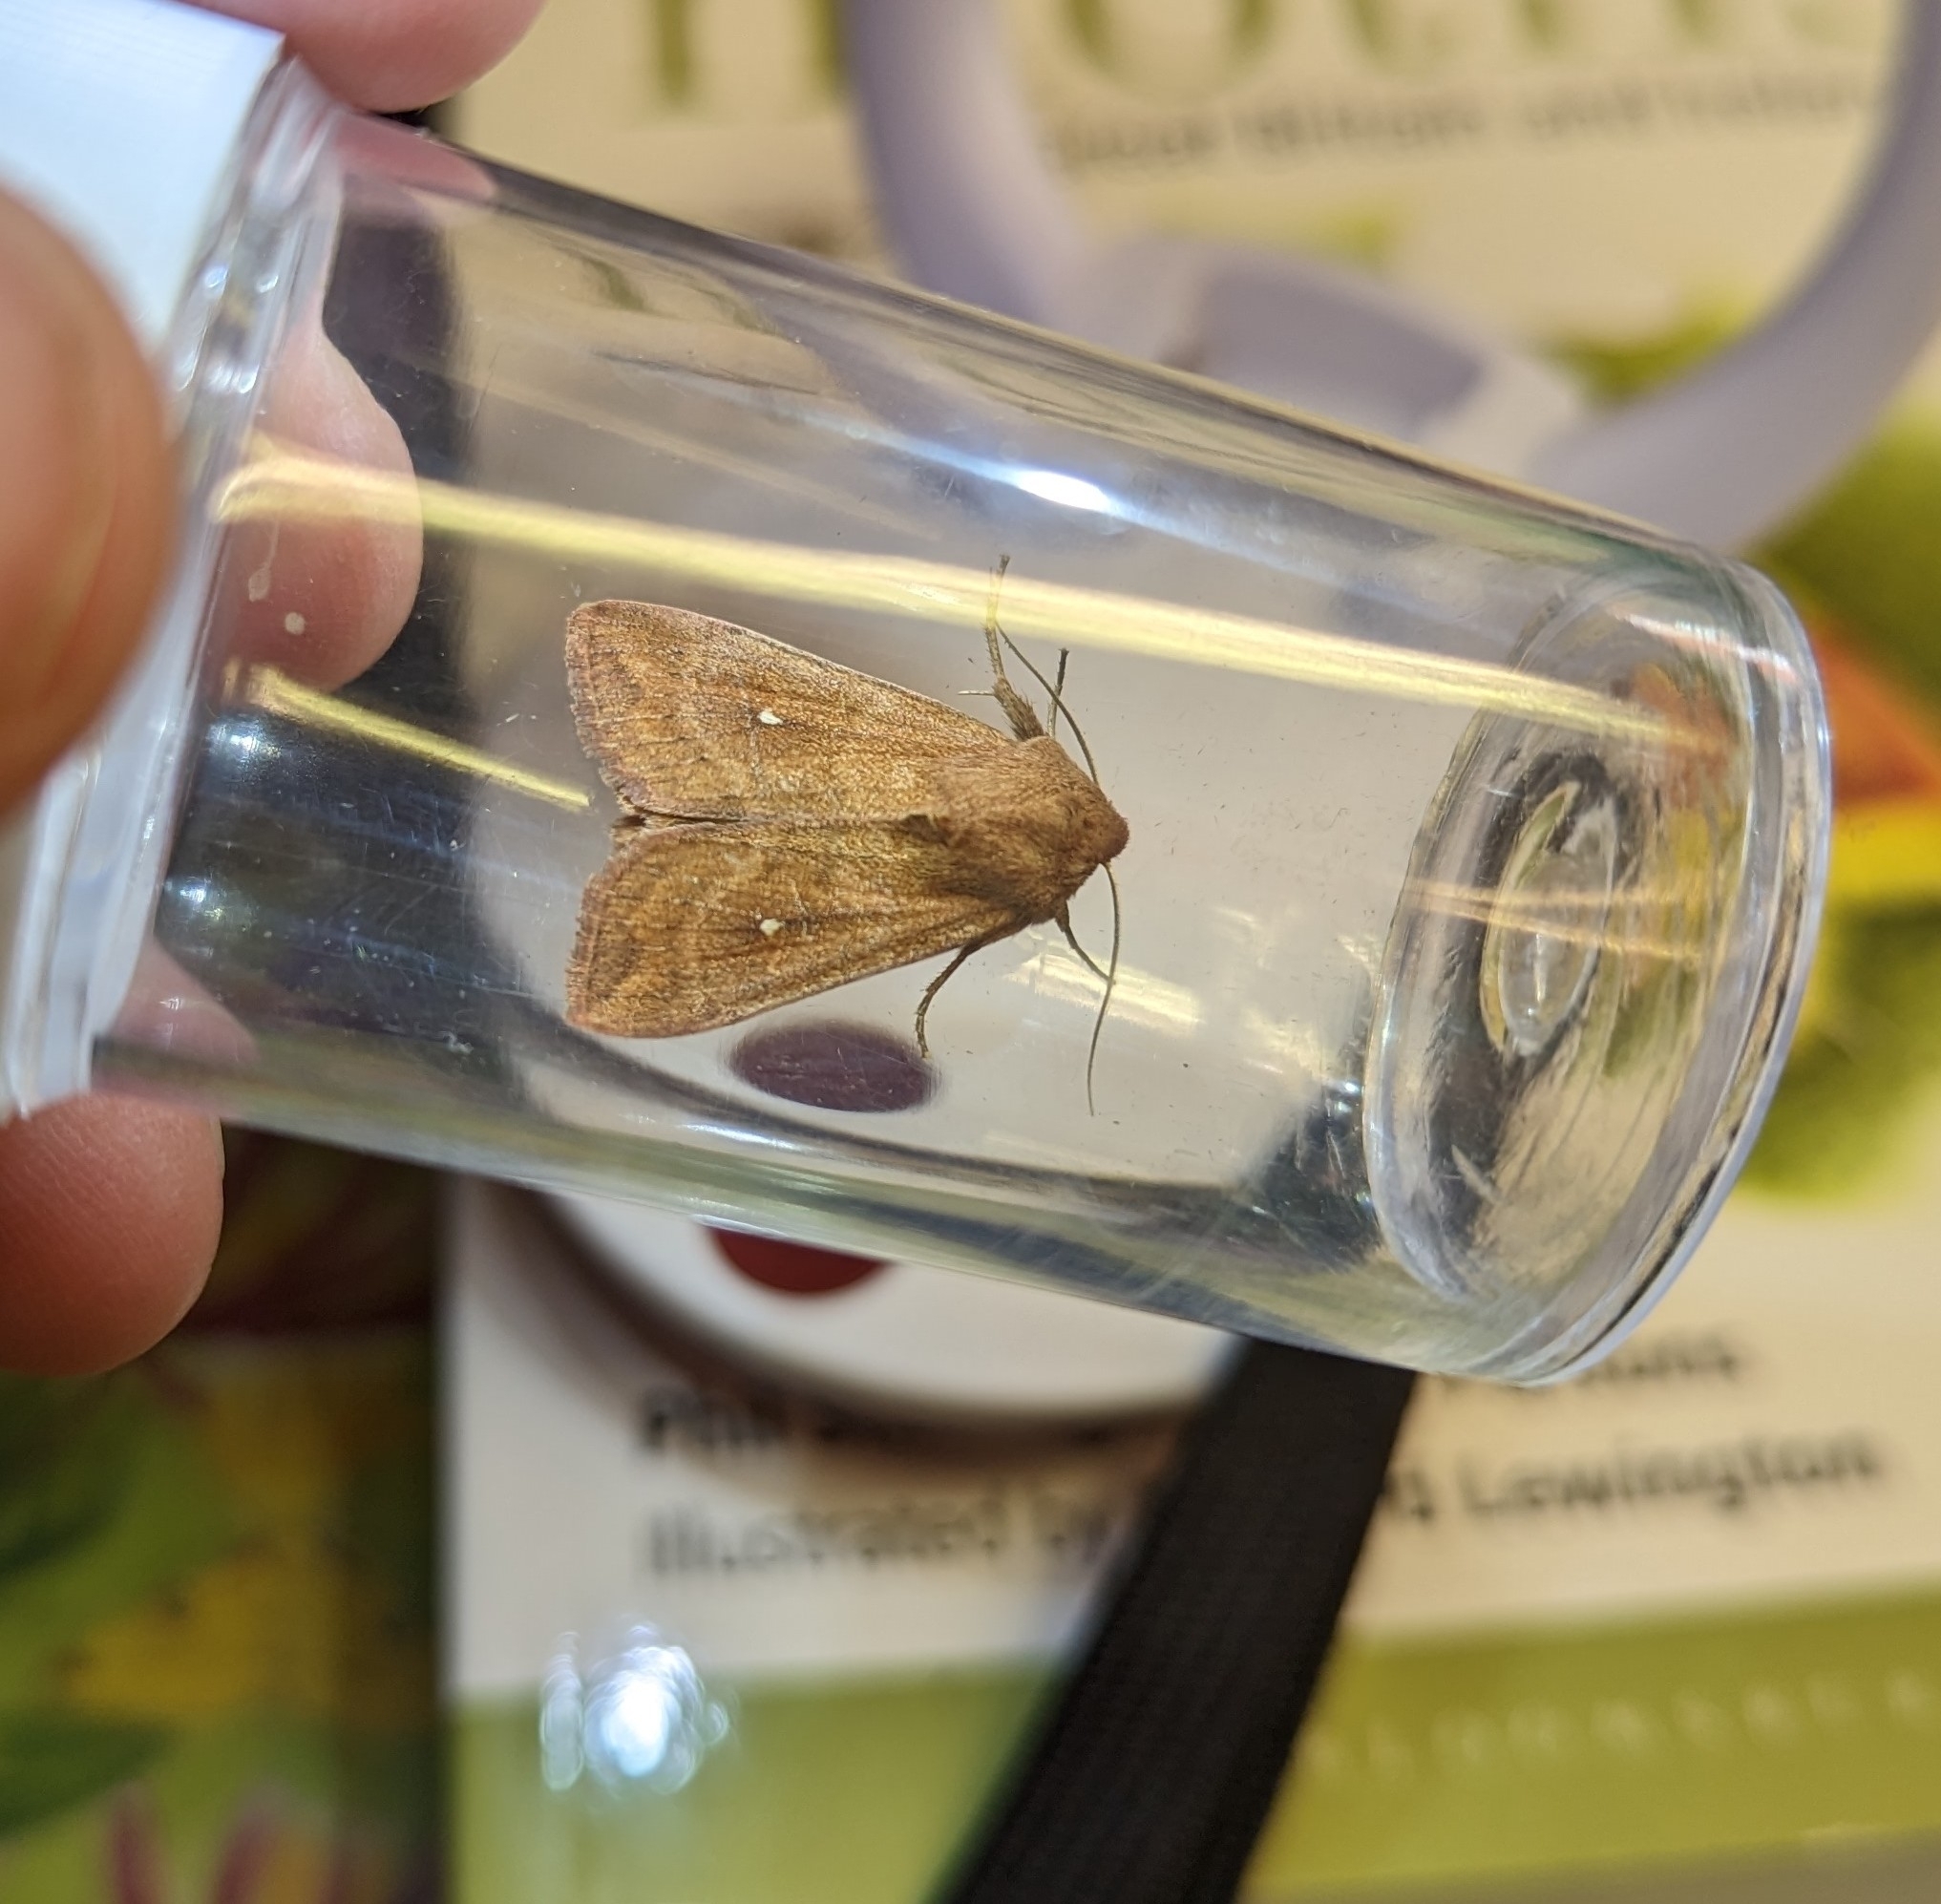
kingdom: Animalia
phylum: Arthropoda
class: Insecta
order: Lepidoptera
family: Noctuidae
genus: Mythimna
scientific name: Mythimna albipuncta
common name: White-point
